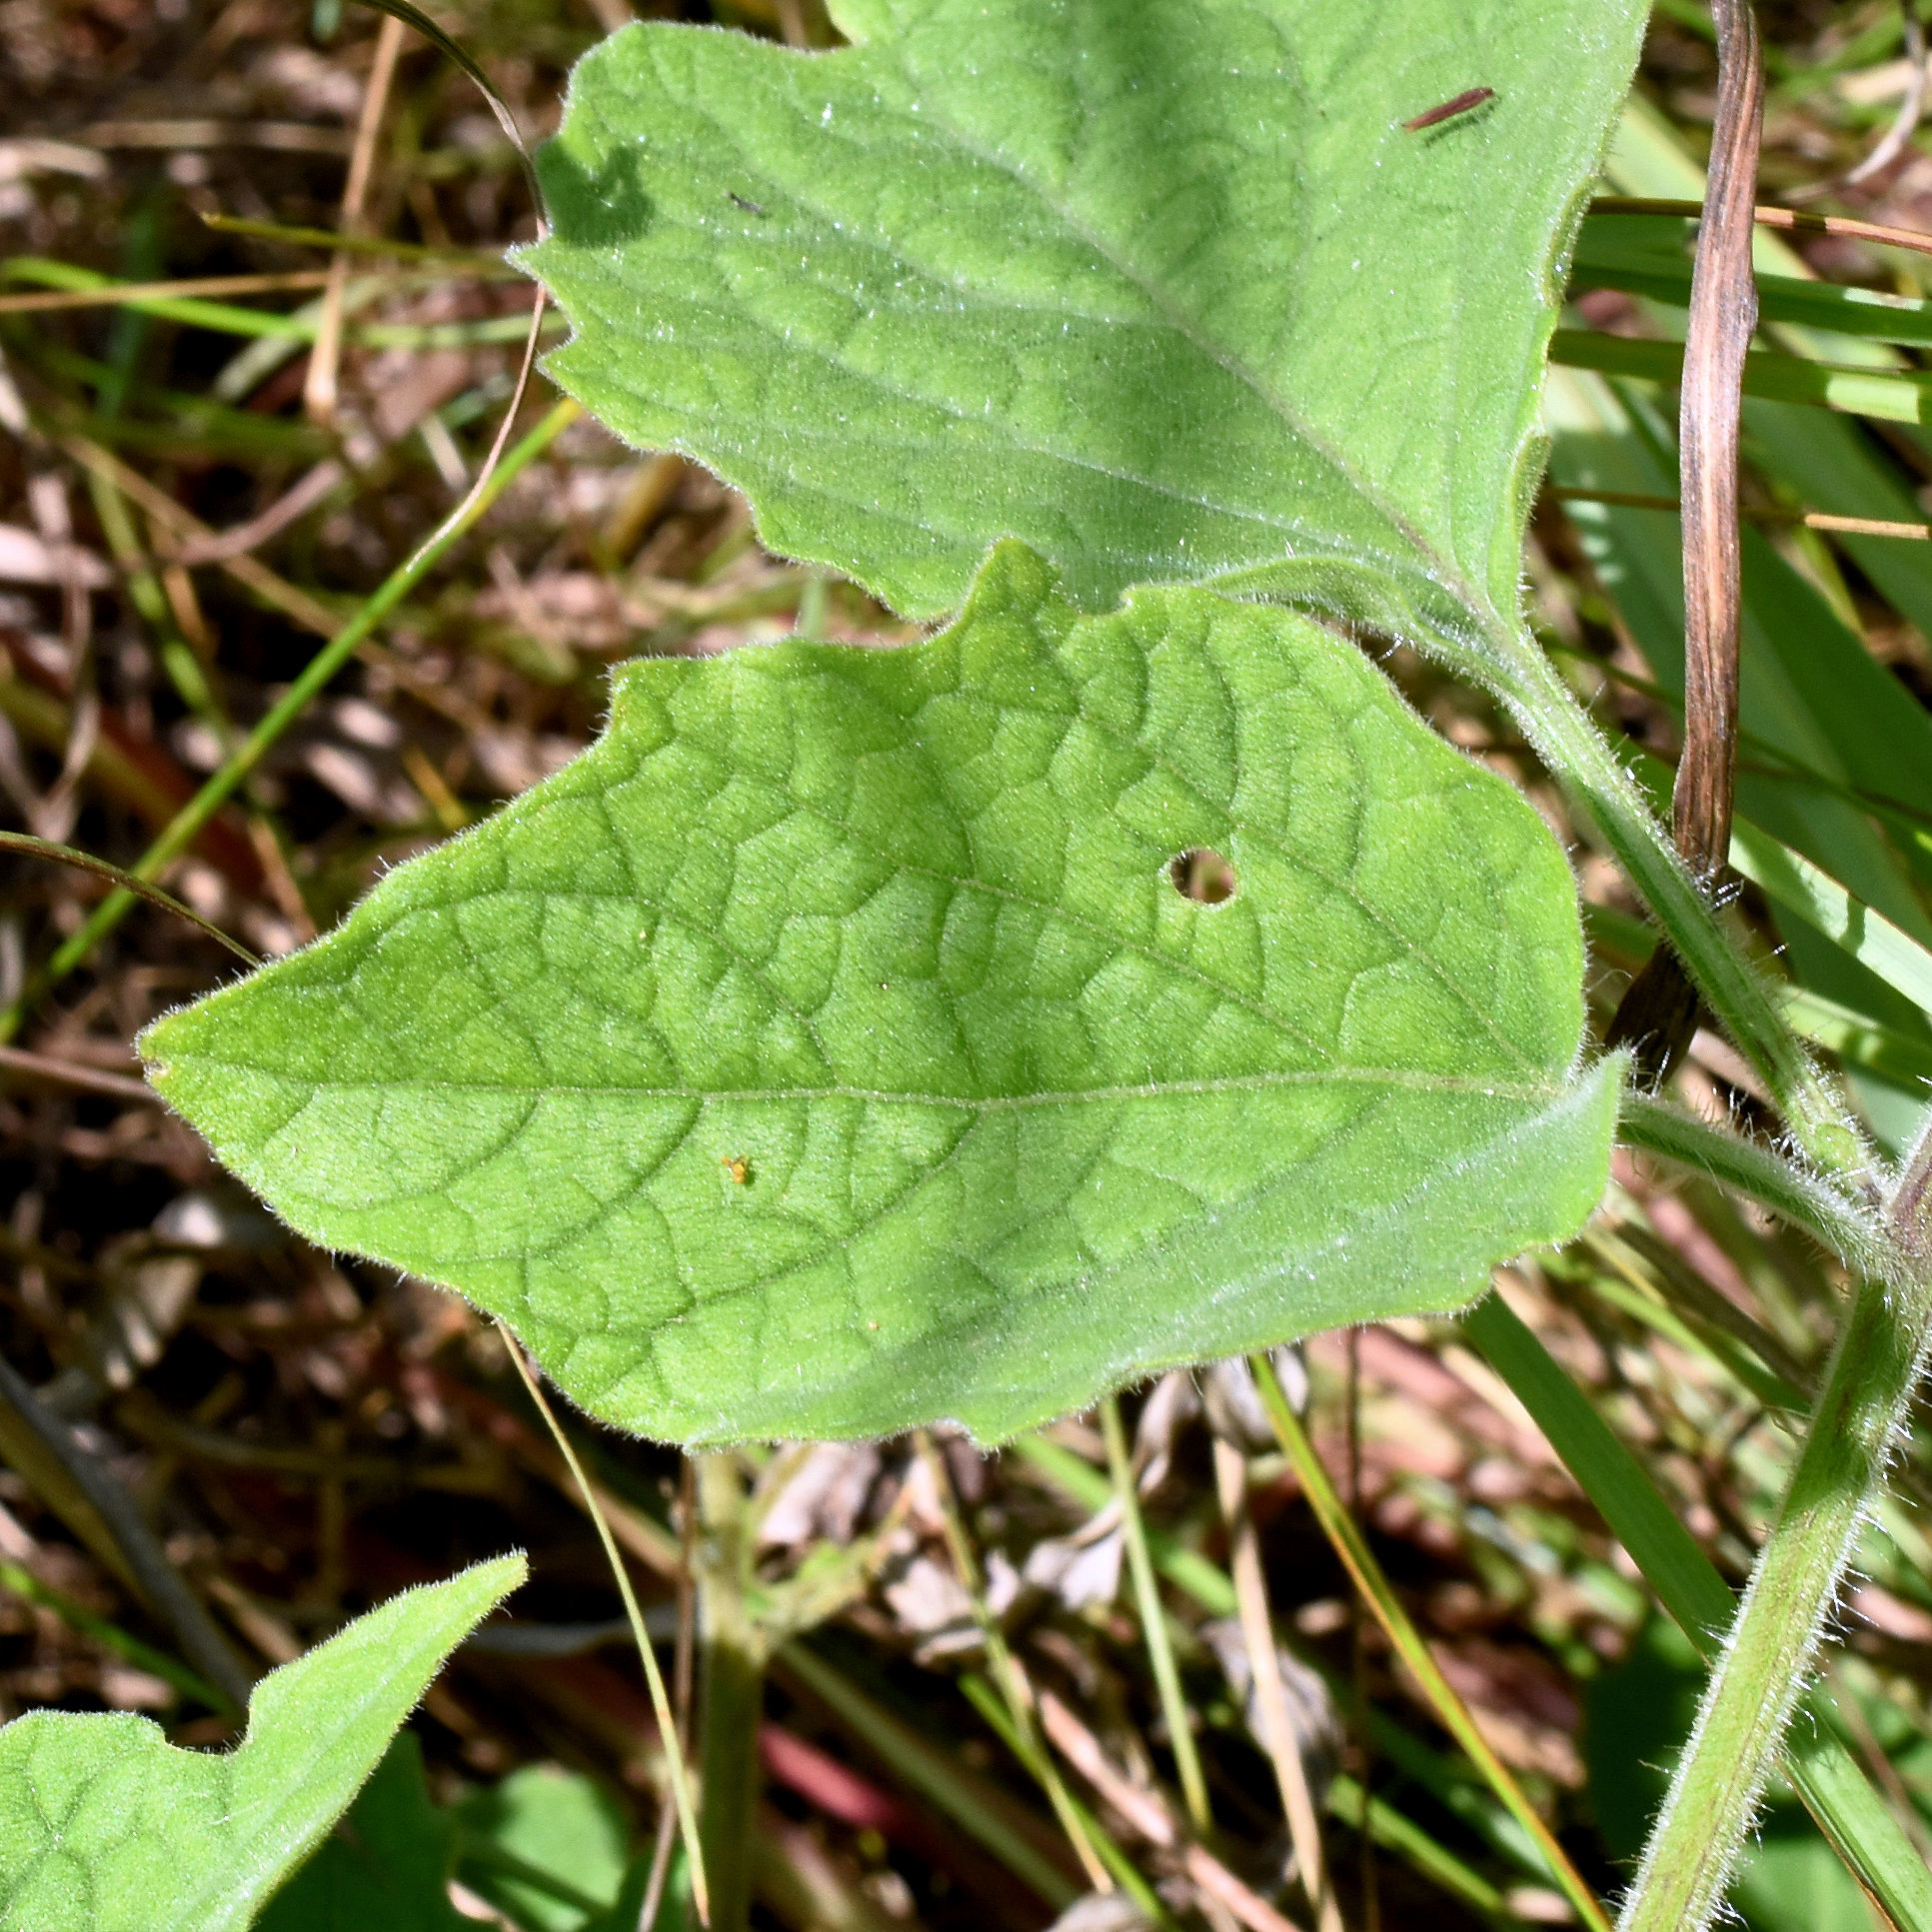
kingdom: Plantae
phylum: Tracheophyta
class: Magnoliopsida
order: Solanales
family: Solanaceae
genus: Physalis
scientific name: Physalis heterophylla
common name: Clammy ground-cherry
